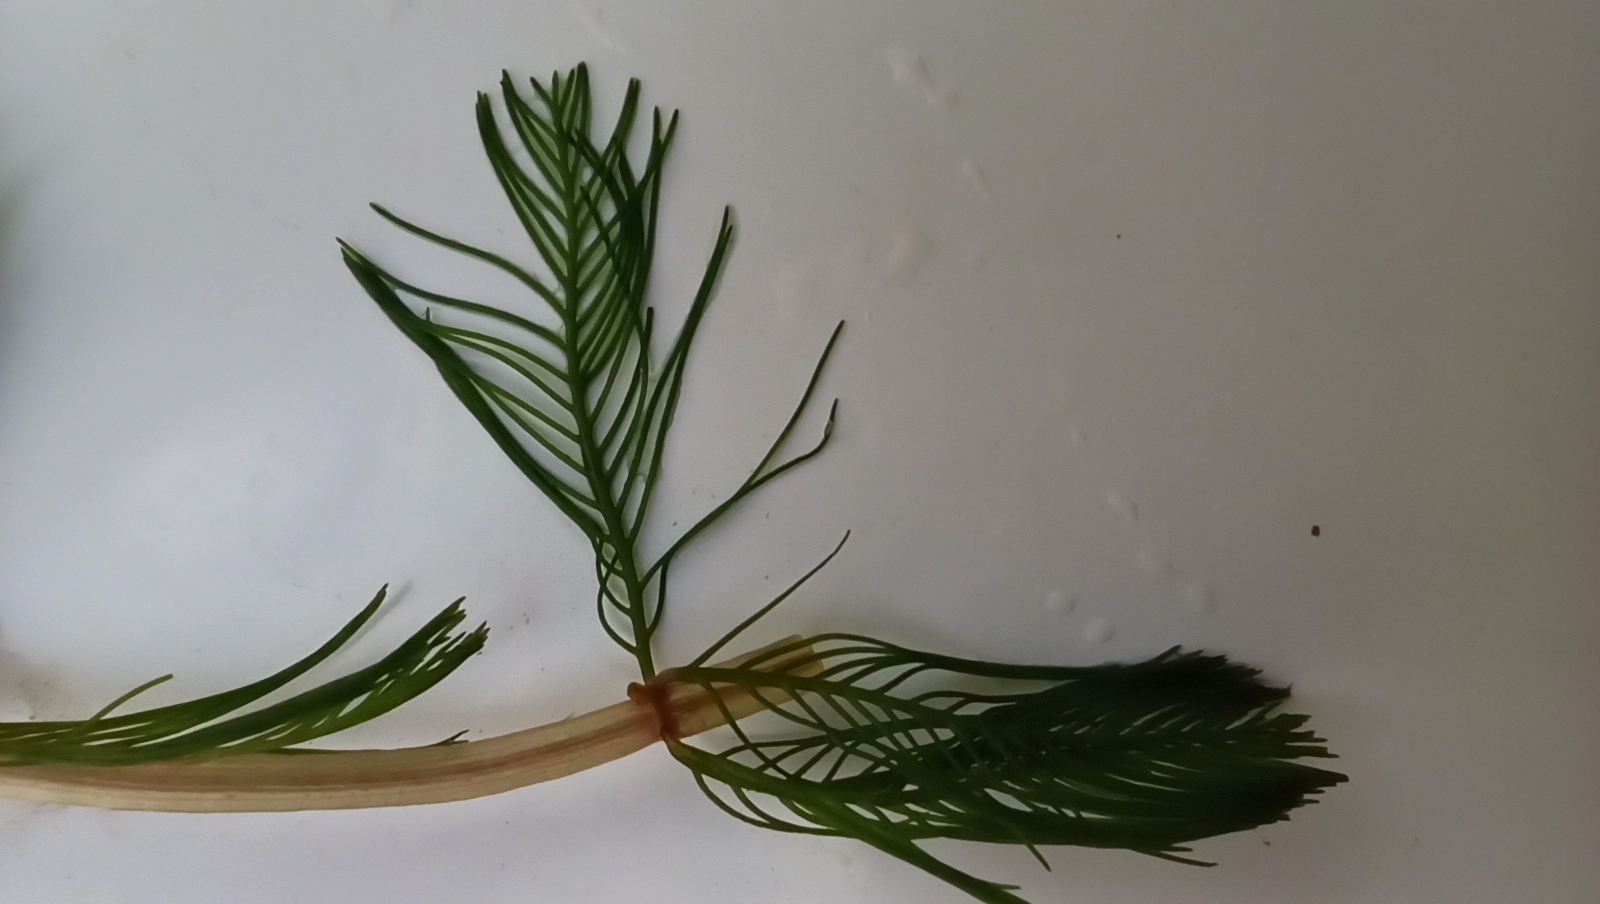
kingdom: Plantae
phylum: Tracheophyta
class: Magnoliopsida
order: Saxifragales
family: Haloragaceae
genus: Myriophyllum
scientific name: Myriophyllum spicatum
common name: Spiked water-milfoil
